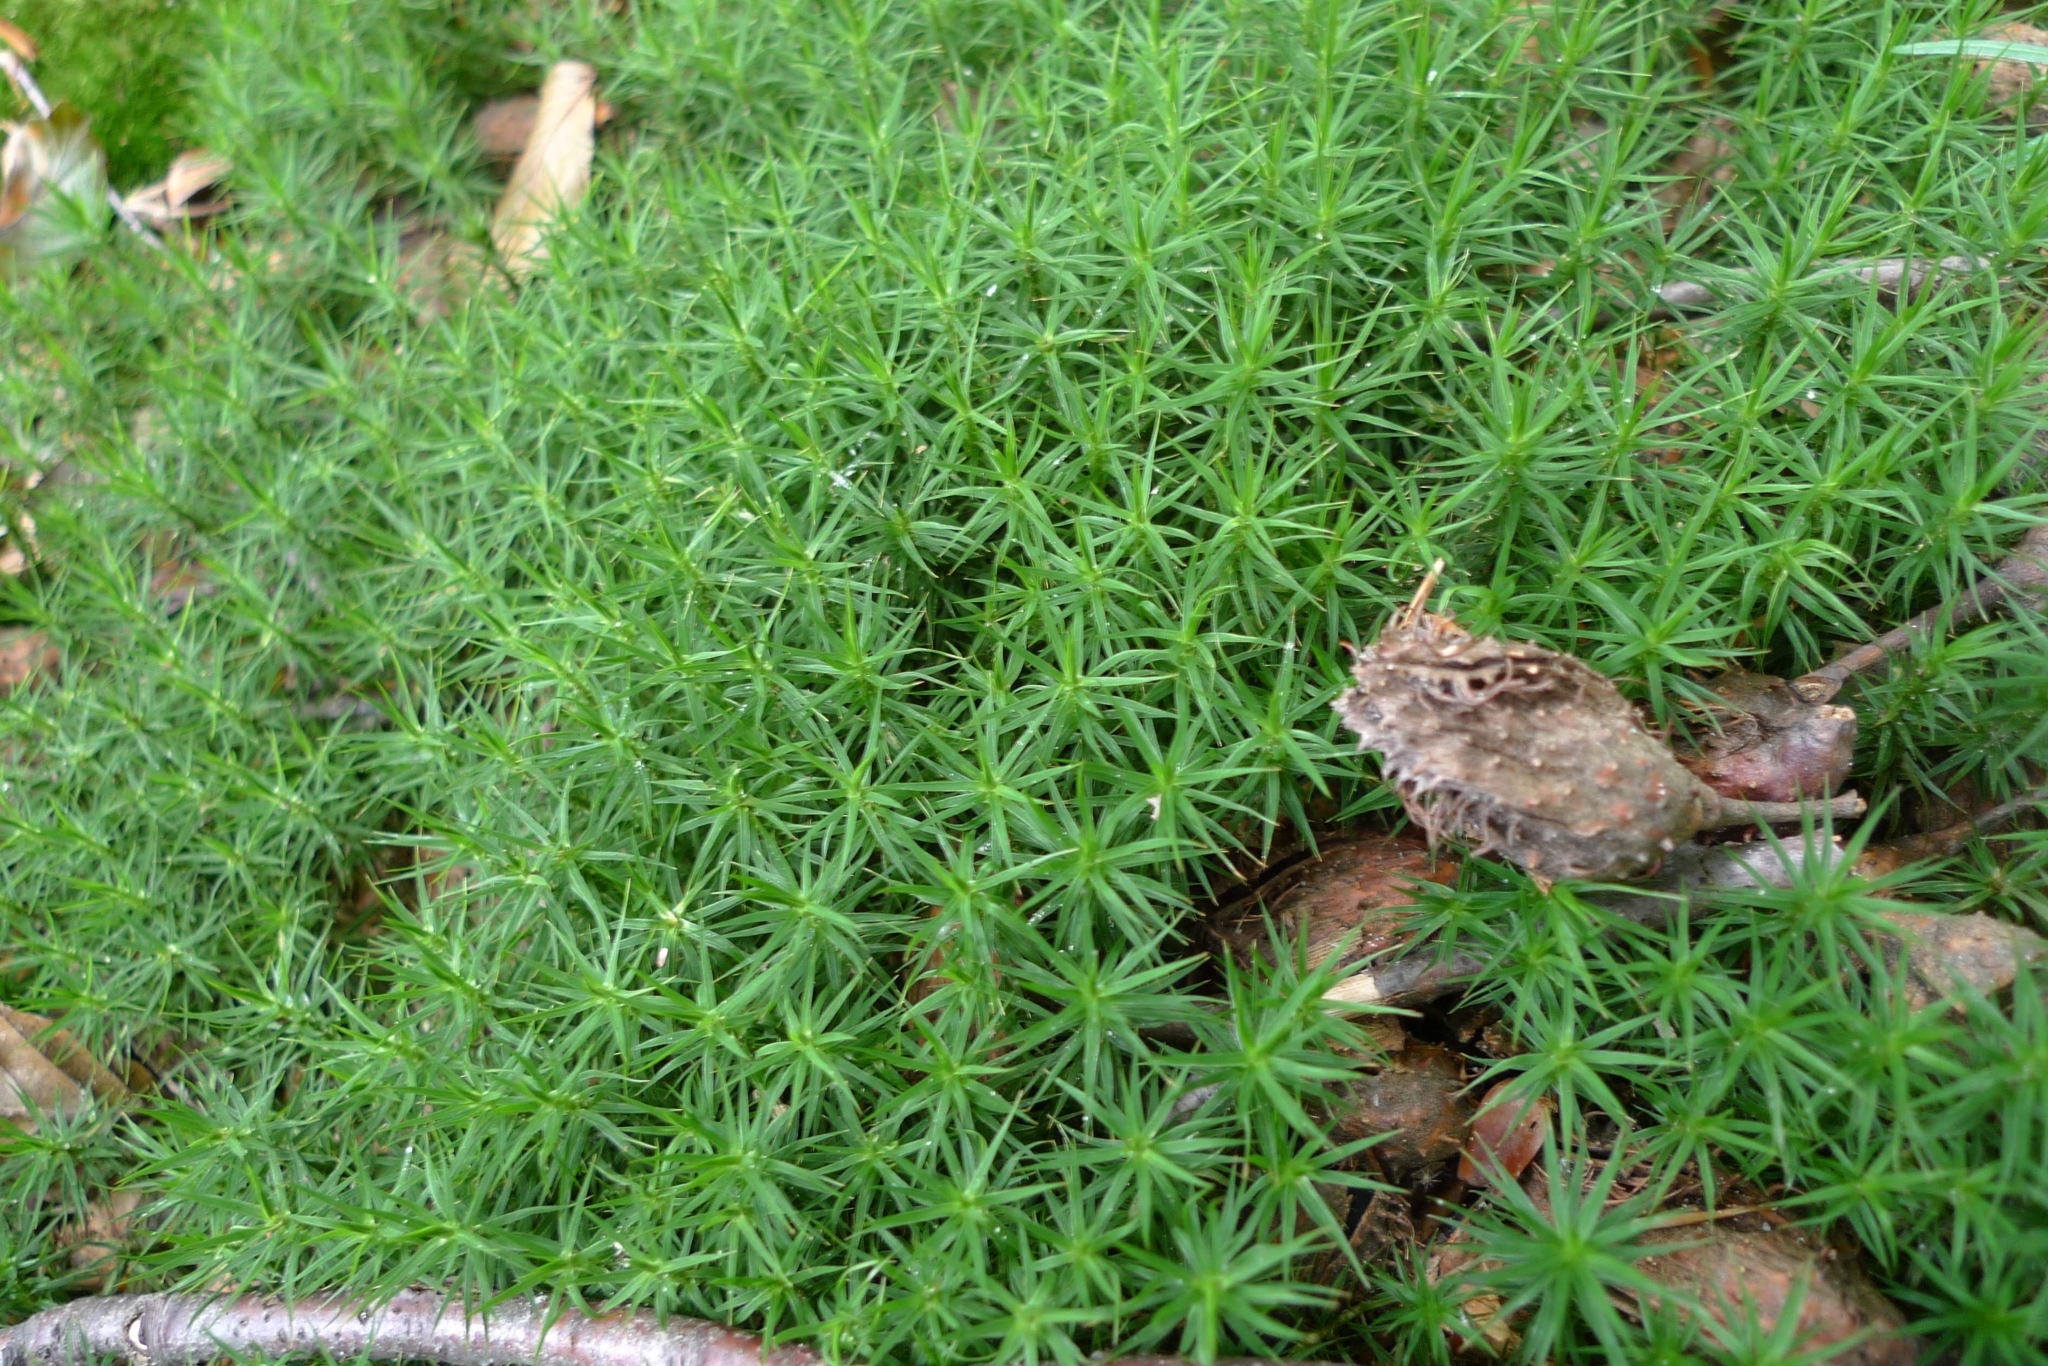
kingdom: Plantae
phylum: Bryophyta
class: Polytrichopsida
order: Polytrichales
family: Polytrichaceae
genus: Polytrichum
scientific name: Polytrichum formosum
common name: Bank haircap moss
